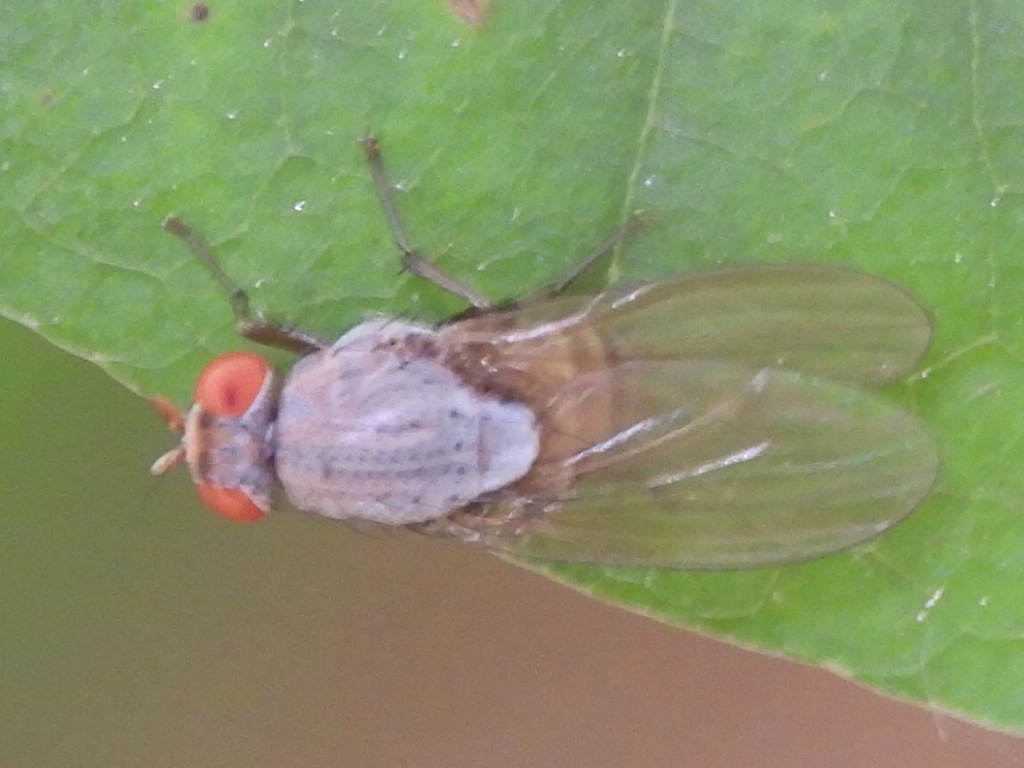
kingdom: Animalia
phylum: Arthropoda
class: Insecta
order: Diptera
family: Lauxaniidae
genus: Minettia
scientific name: Minettia magna
